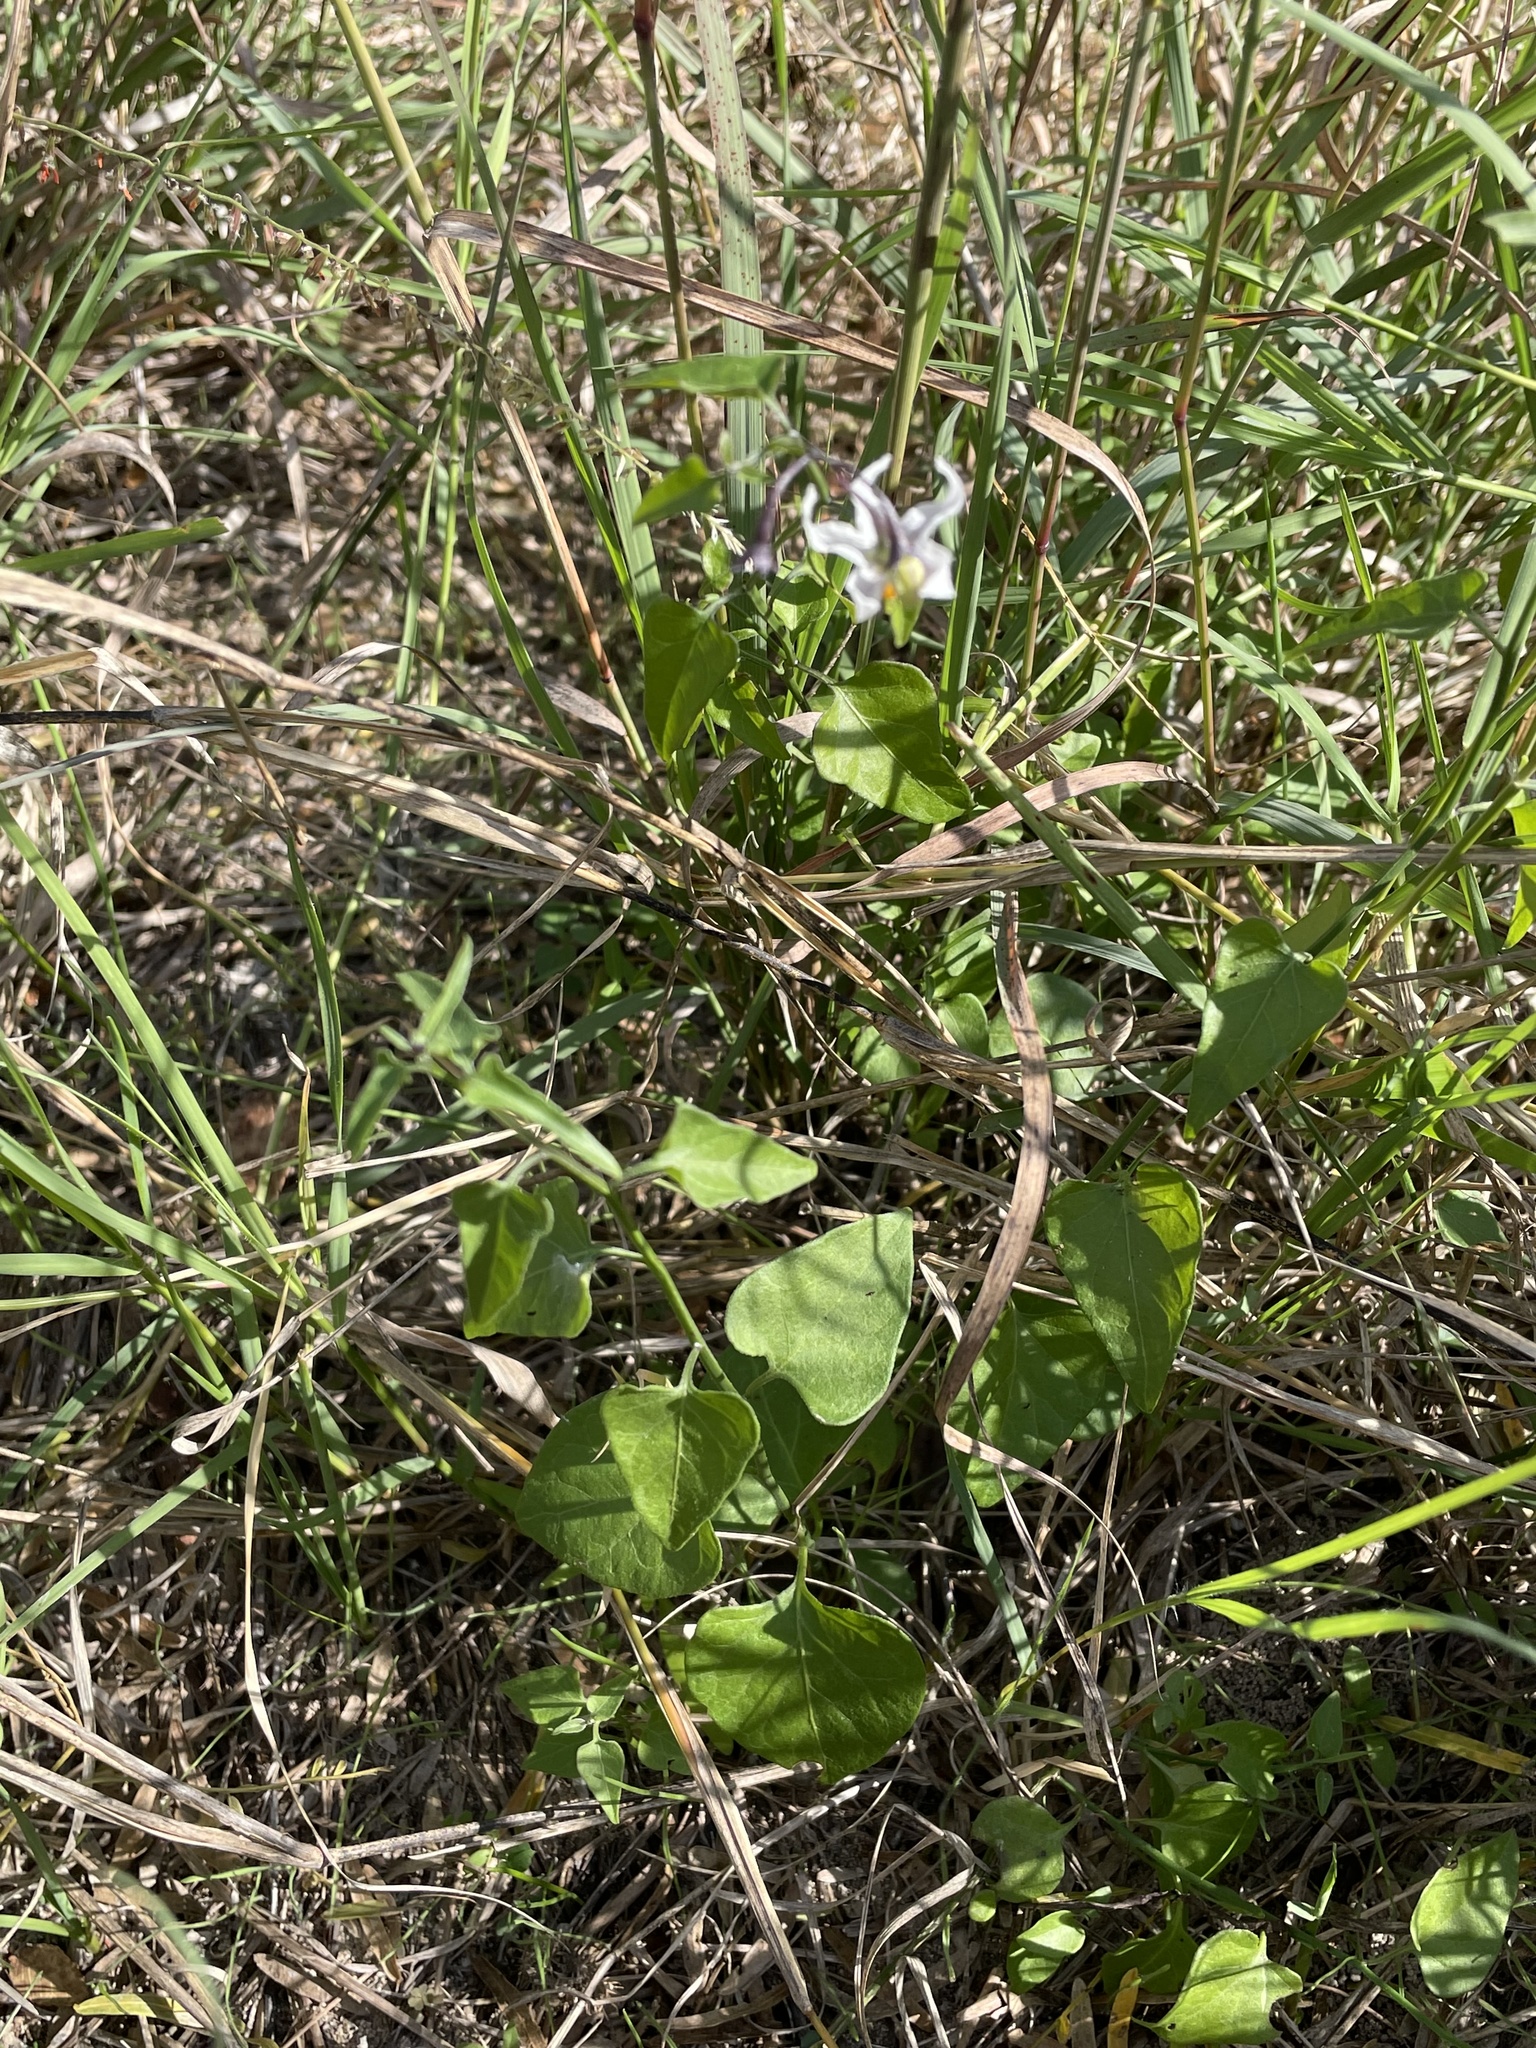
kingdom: Plantae
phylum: Tracheophyta
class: Magnoliopsida
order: Solanales
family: Solanaceae
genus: Solanum
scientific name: Solanum triquetrum
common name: Texas nightshade
